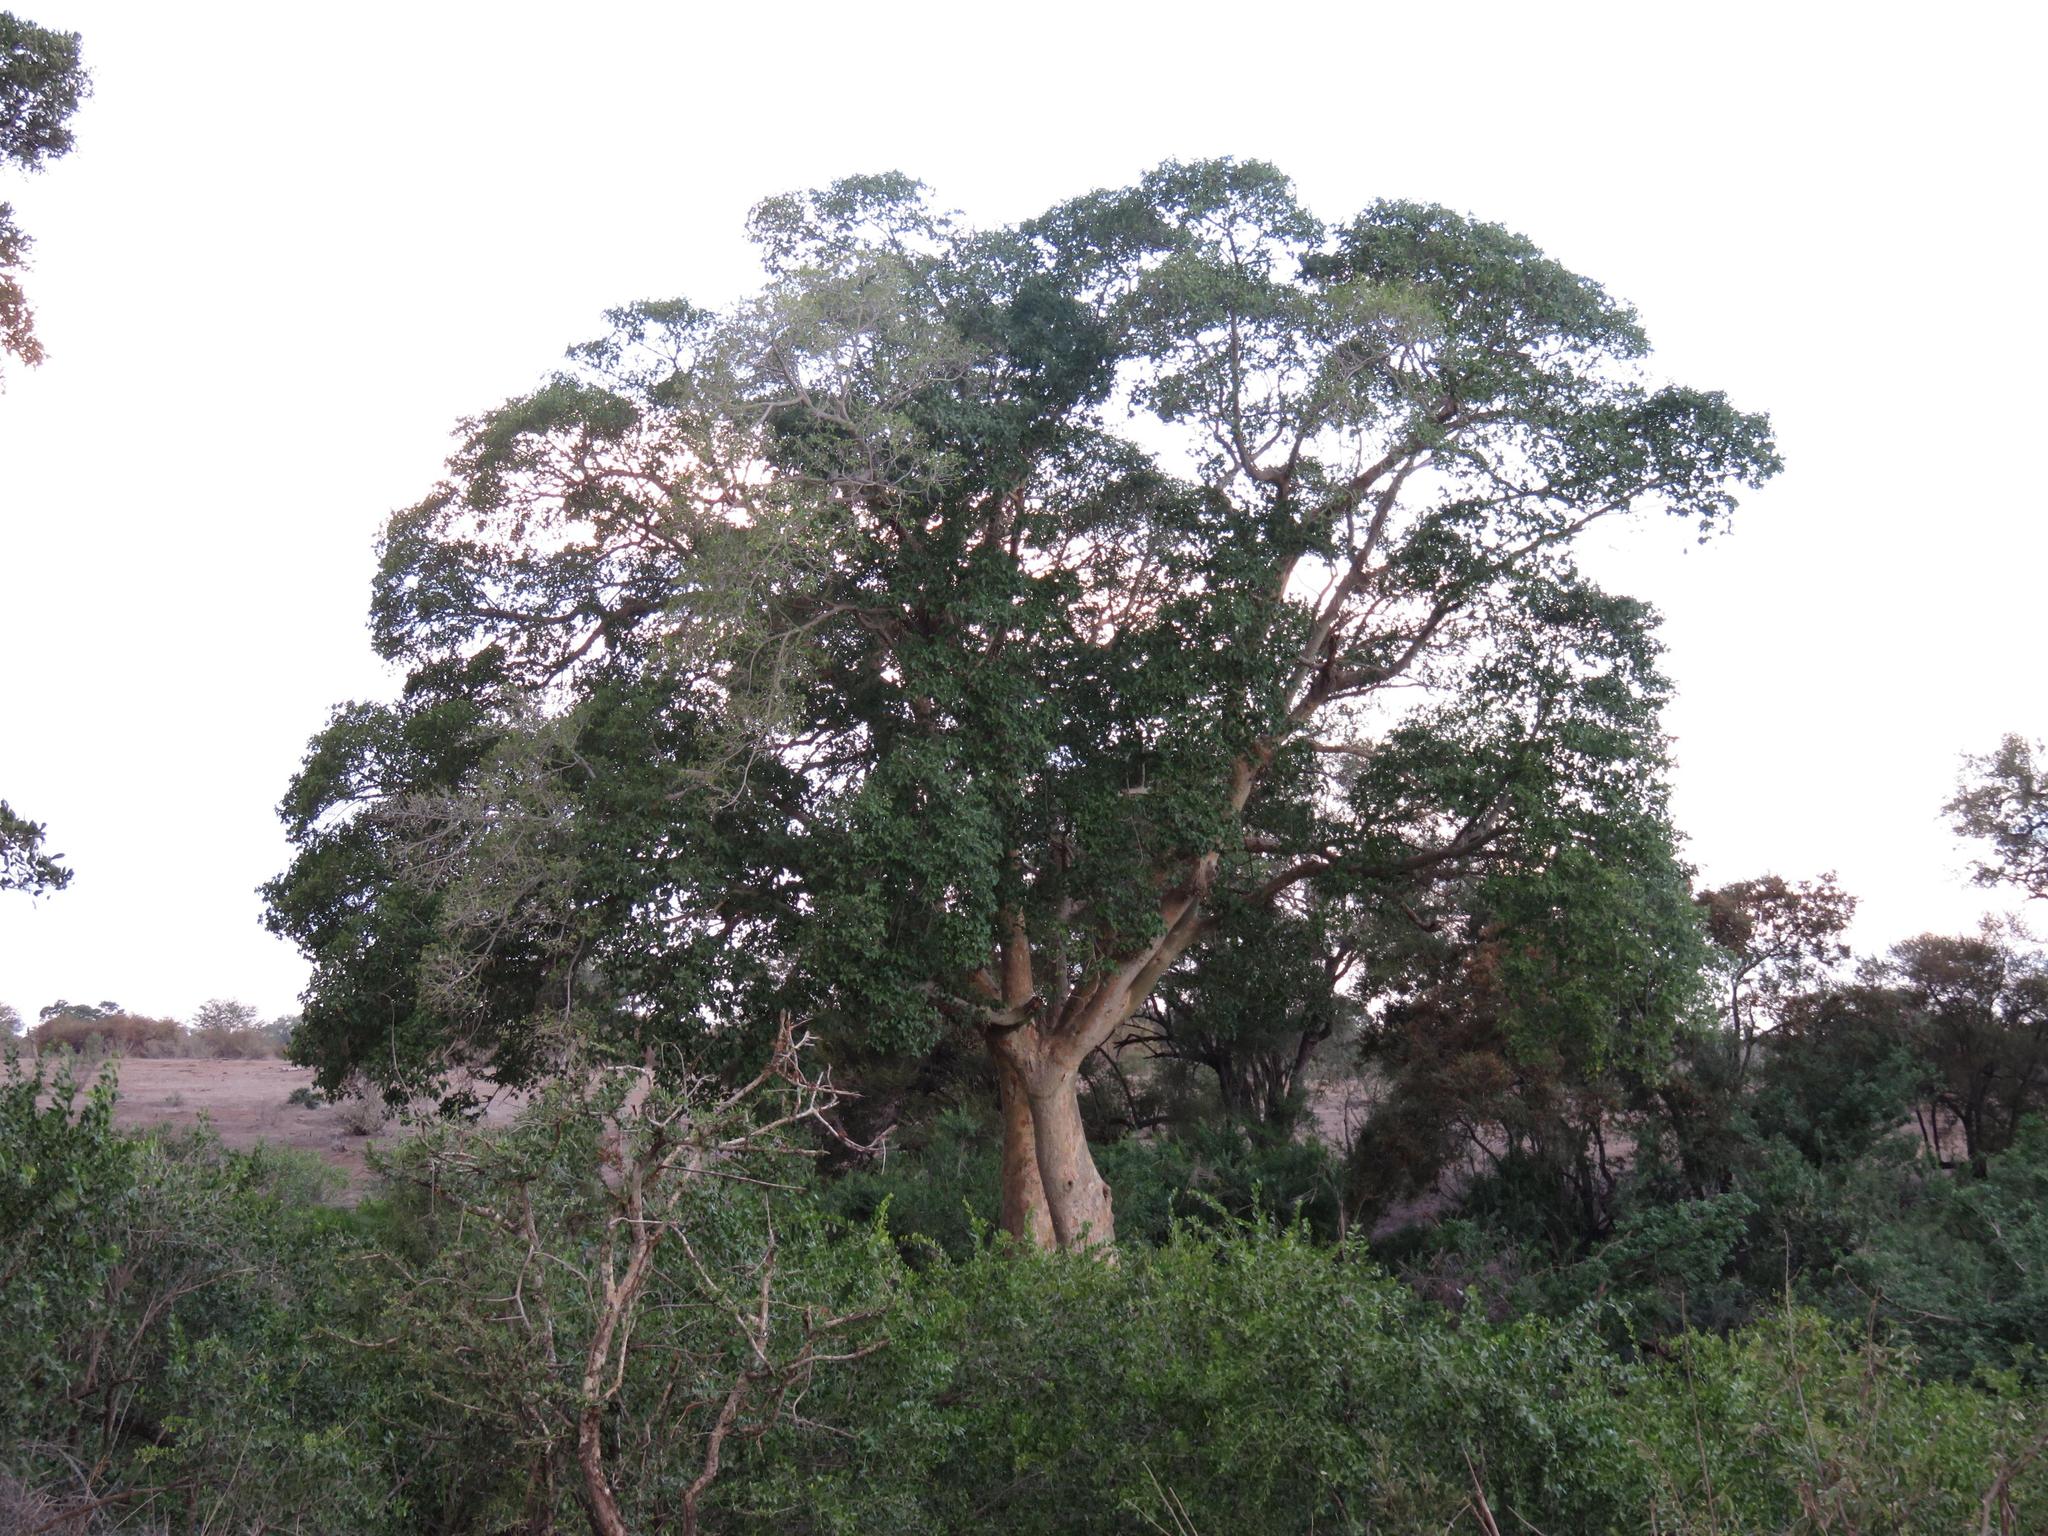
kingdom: Plantae
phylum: Tracheophyta
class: Magnoliopsida
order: Rosales
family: Moraceae
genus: Ficus
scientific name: Ficus sycomorus
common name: Sycomore
